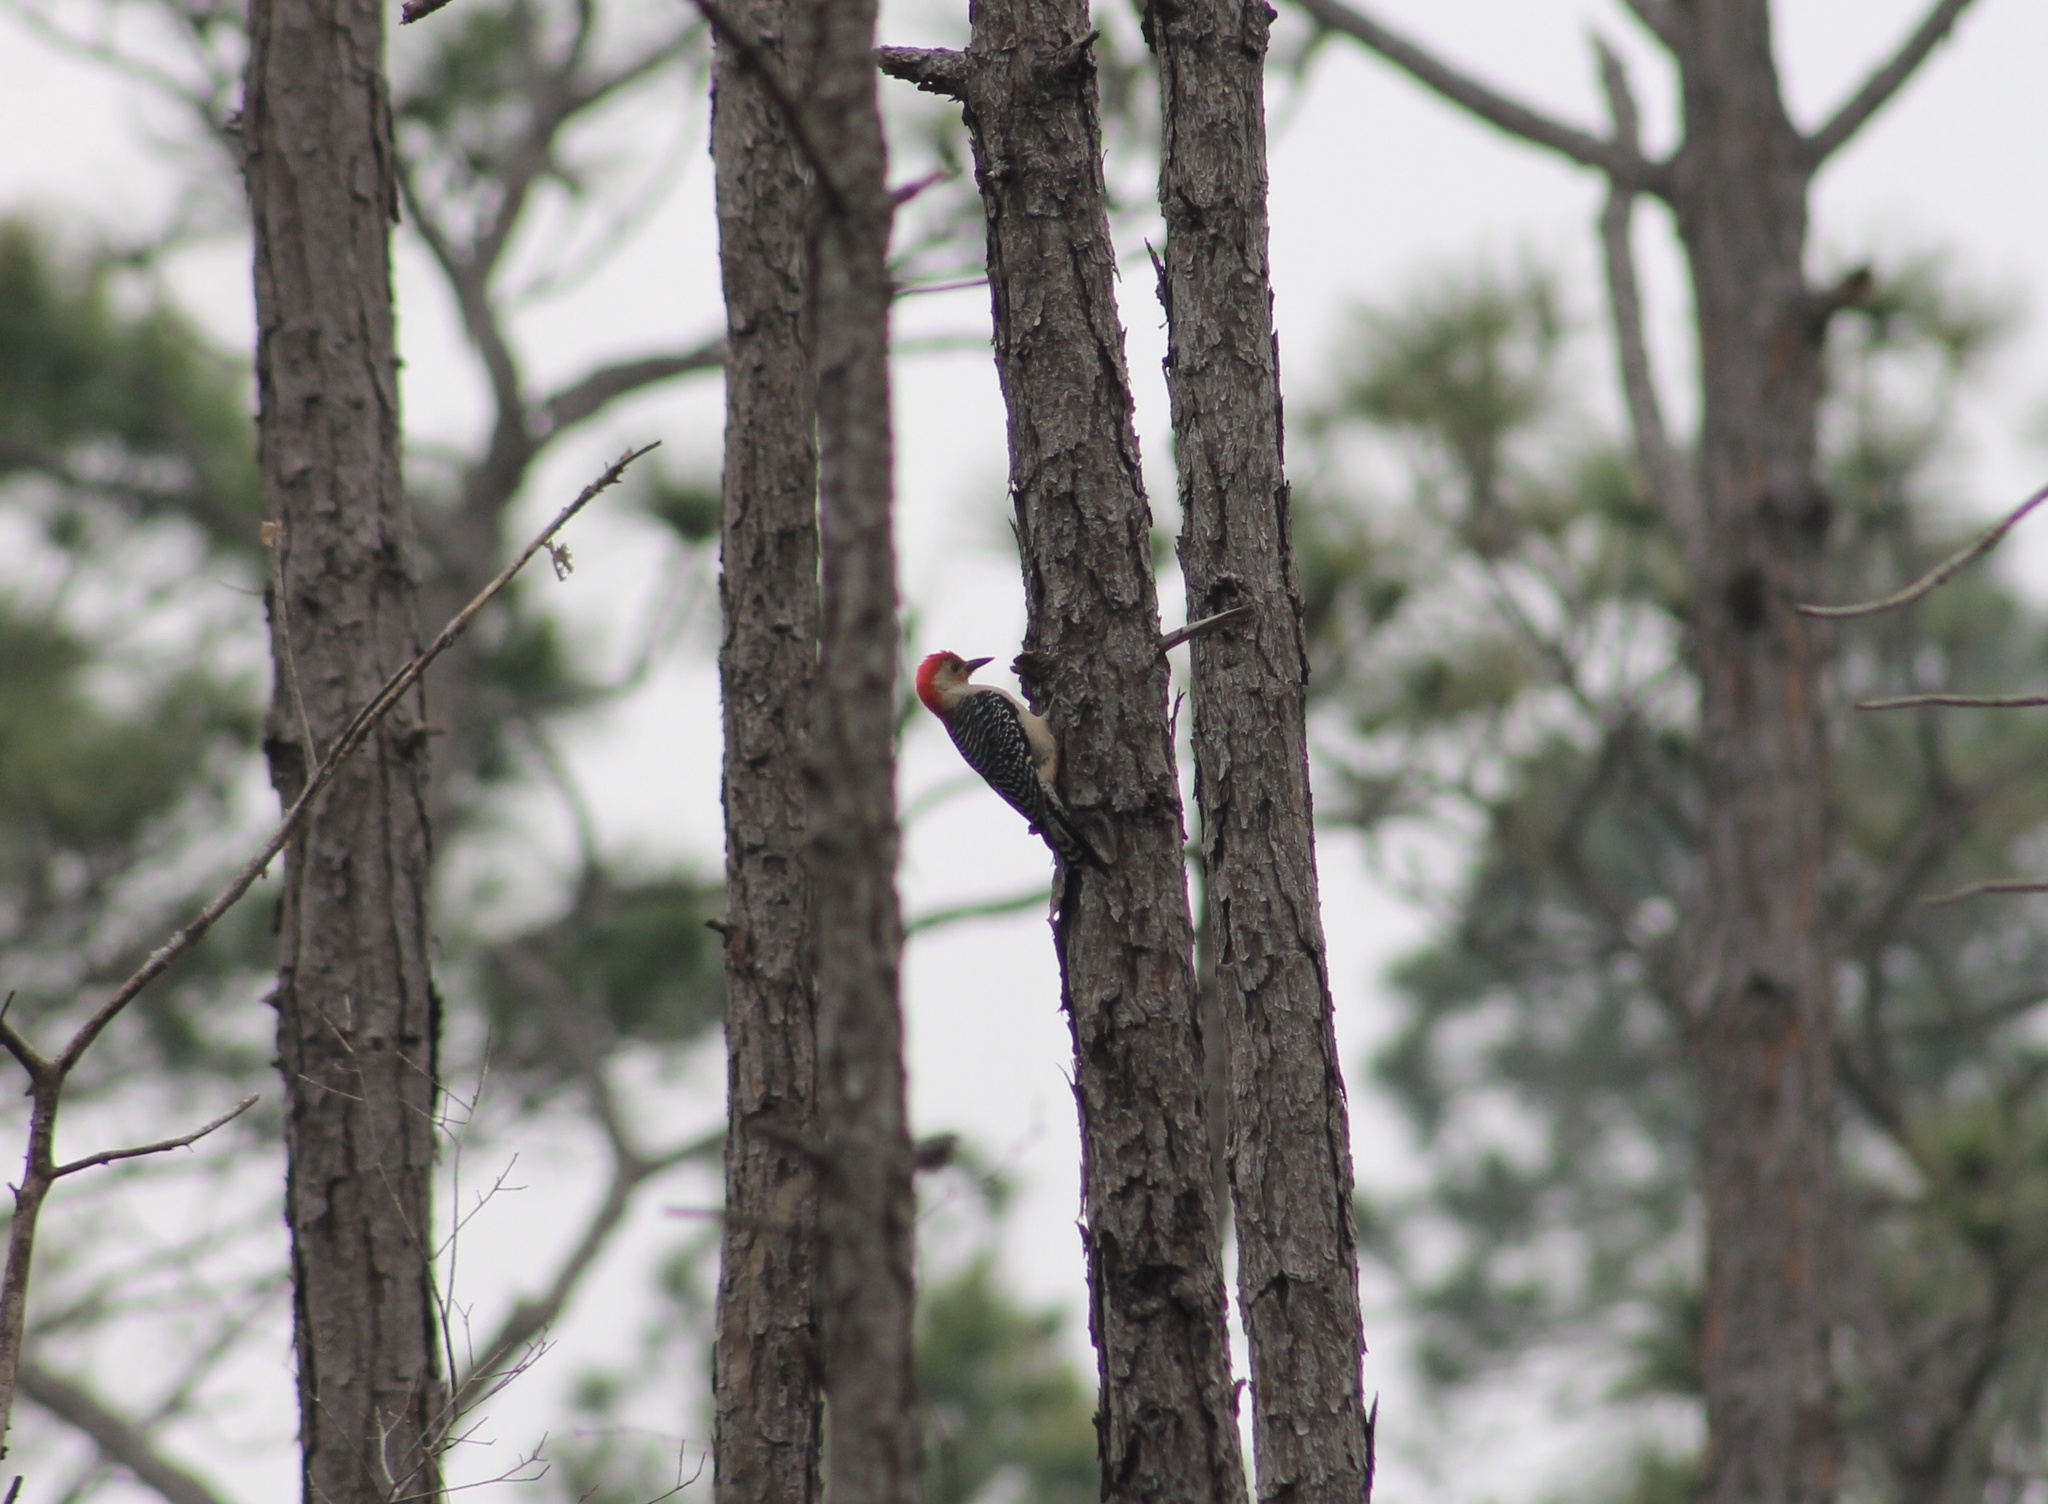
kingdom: Animalia
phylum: Chordata
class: Aves
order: Piciformes
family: Picidae
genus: Melanerpes
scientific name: Melanerpes carolinus
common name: Red-bellied woodpecker
